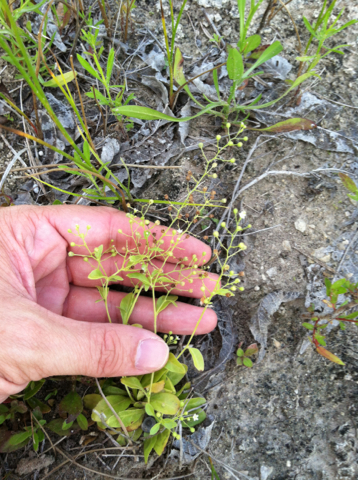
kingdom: Plantae
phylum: Tracheophyta
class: Magnoliopsida
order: Ericales
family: Primulaceae
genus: Samolus
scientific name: Samolus ebracteatus
